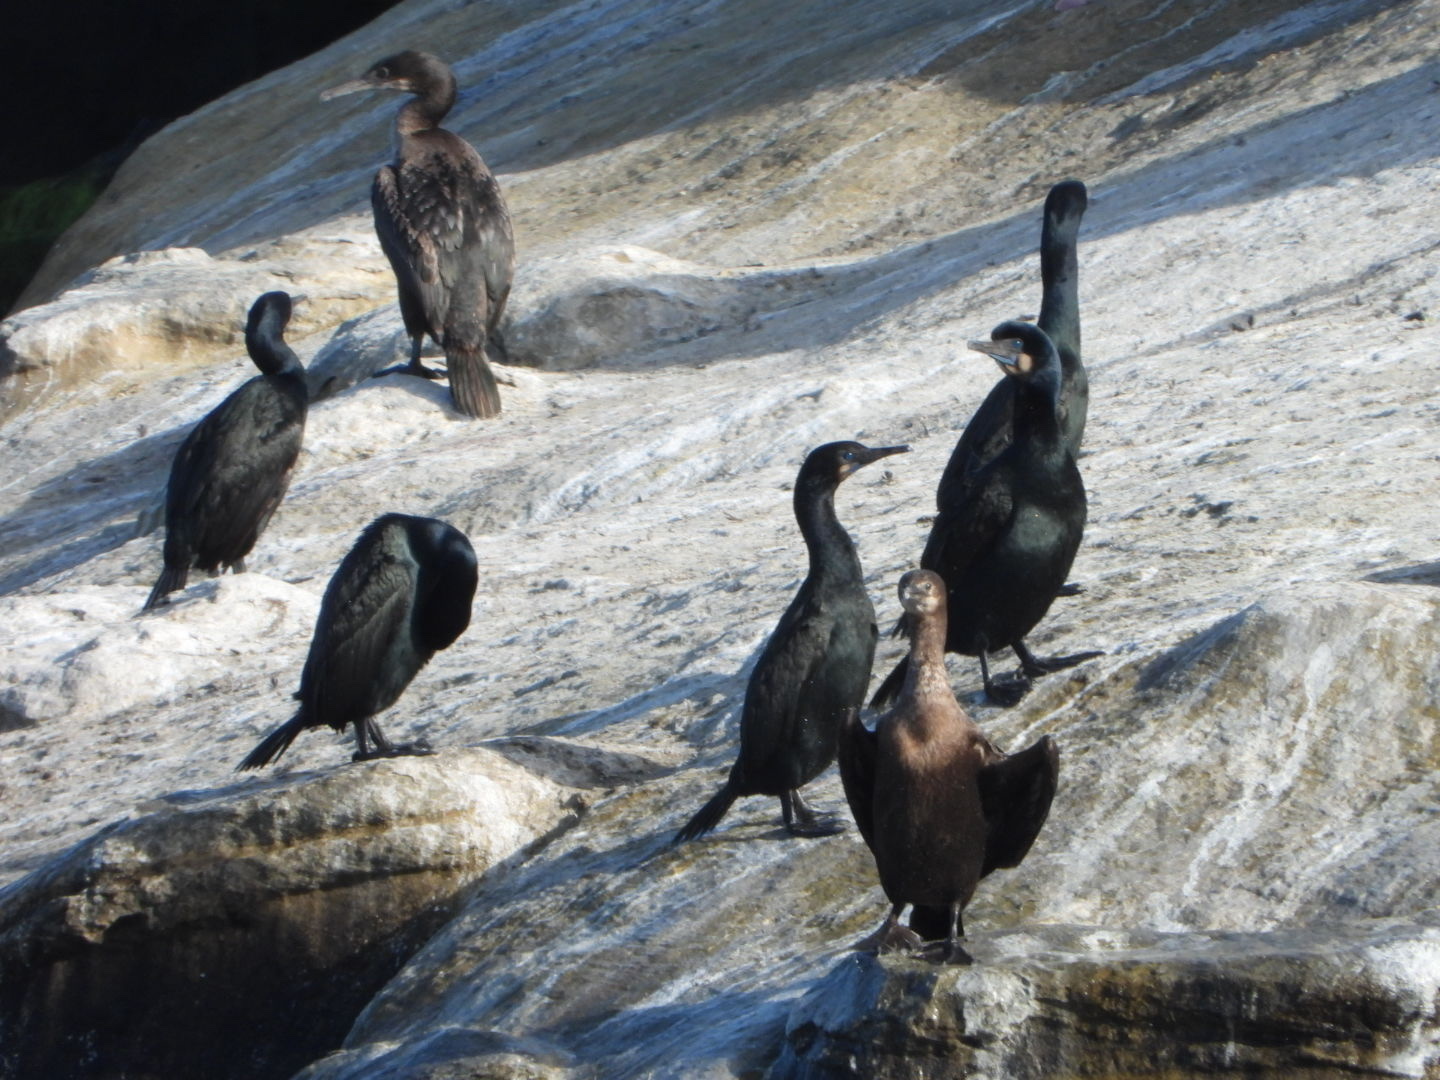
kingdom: Animalia
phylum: Chordata
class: Aves
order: Suliformes
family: Phalacrocoracidae
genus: Urile
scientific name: Urile penicillatus
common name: Brandt's cormorant
